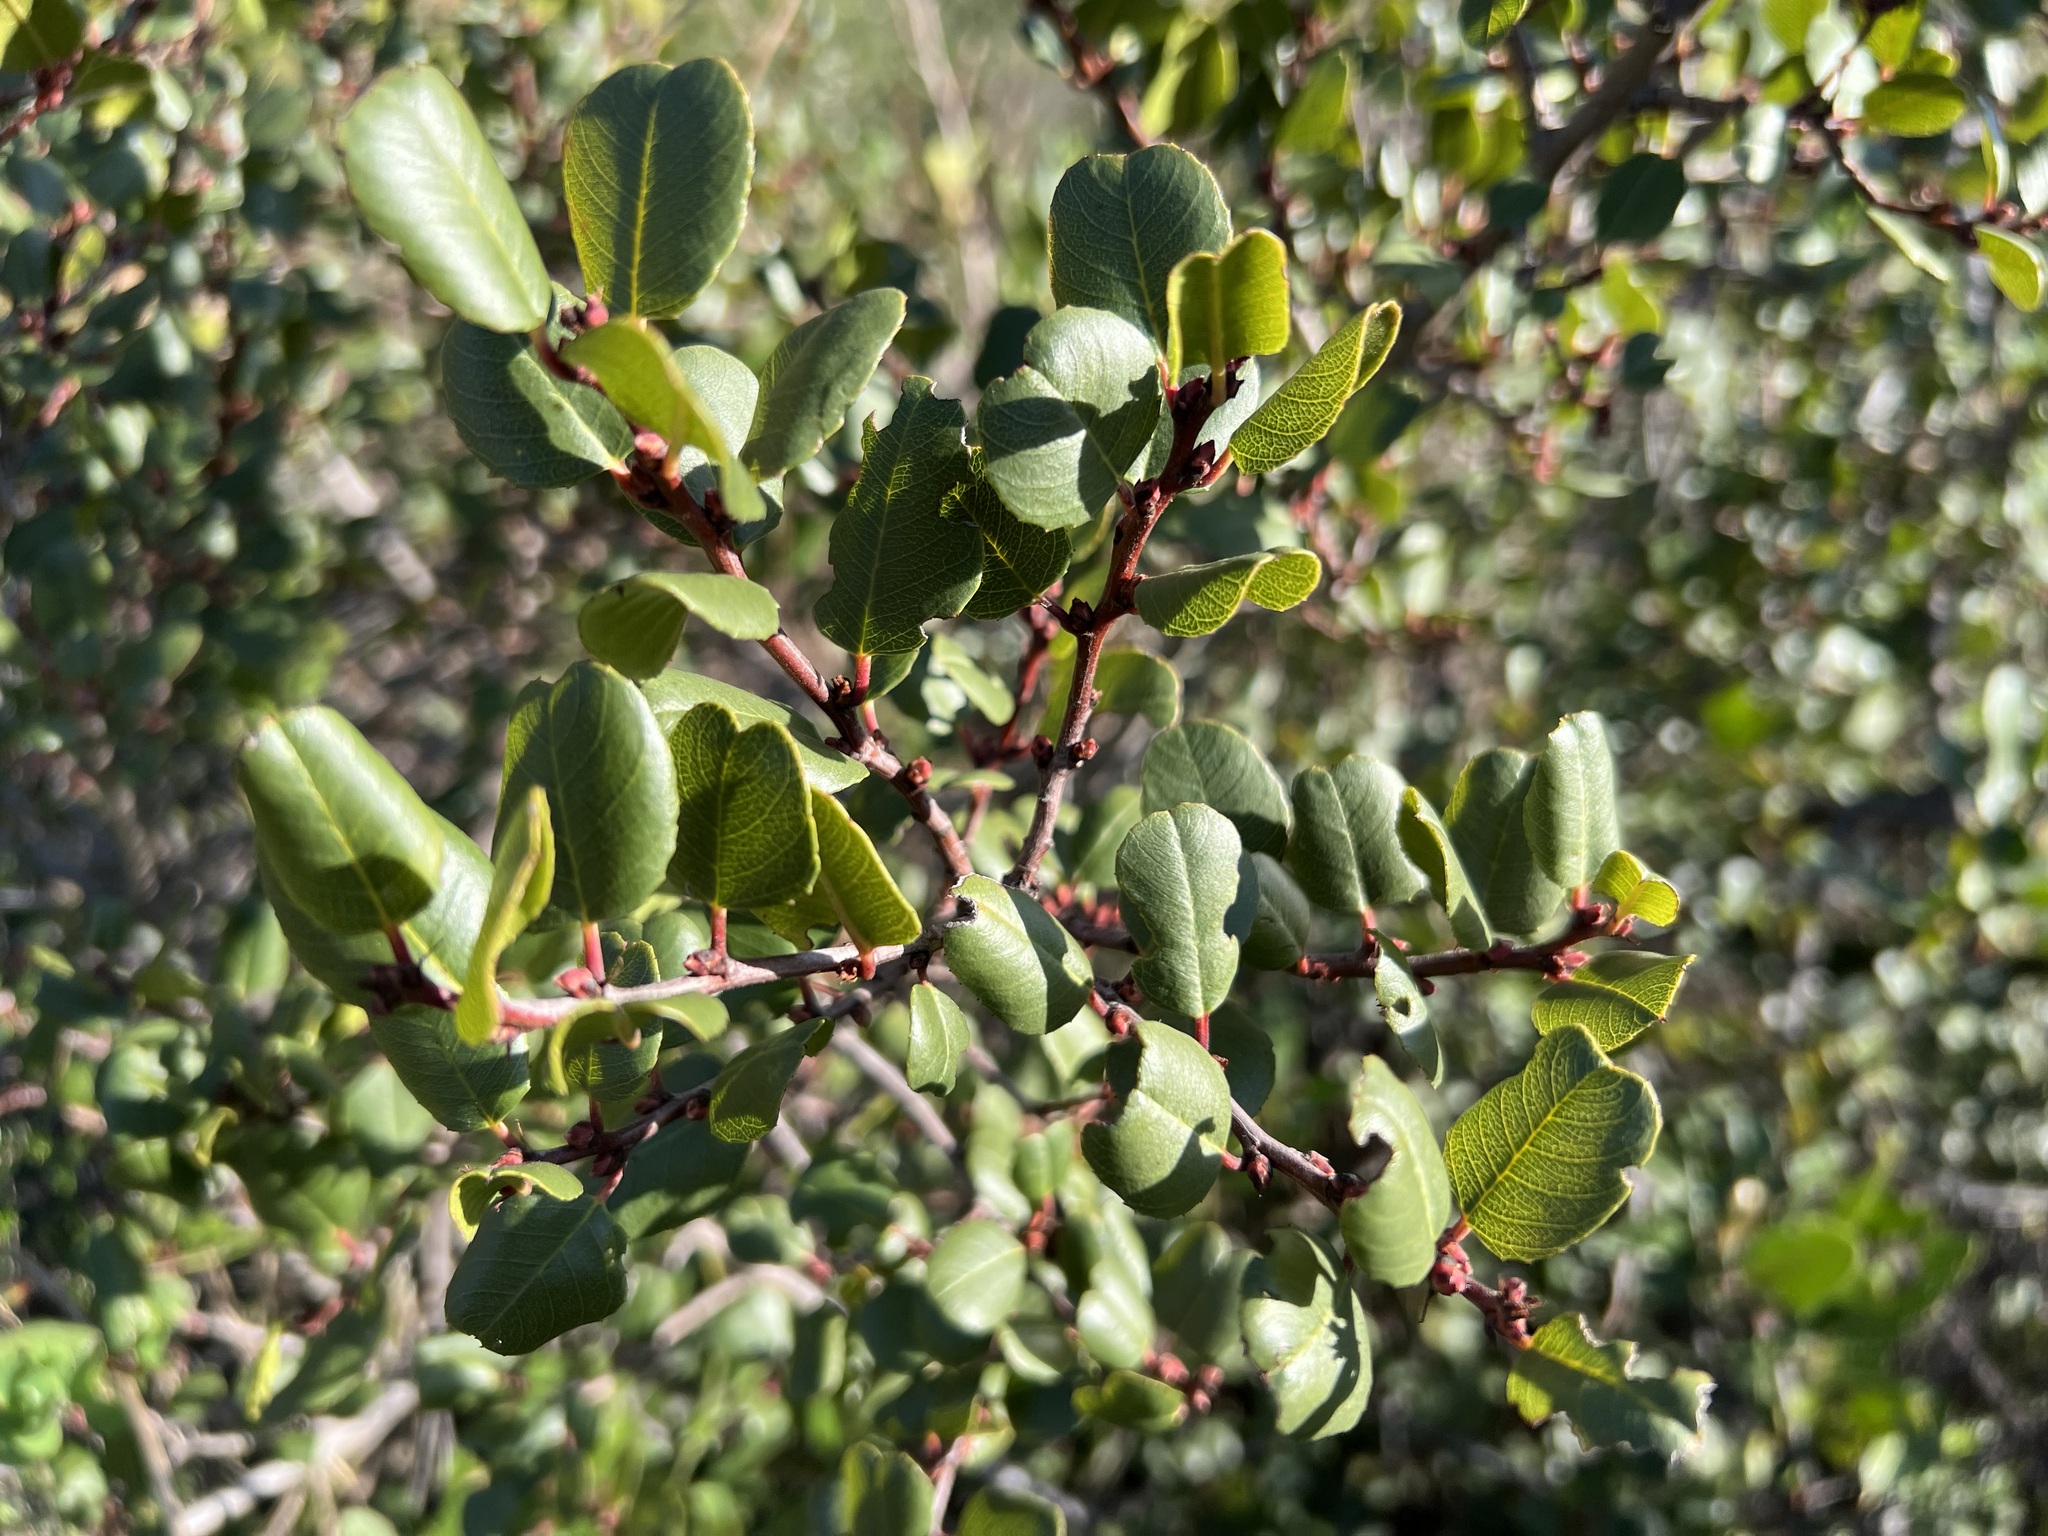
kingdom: Plantae
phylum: Tracheophyta
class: Magnoliopsida
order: Rosales
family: Rhamnaceae
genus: Endotropis
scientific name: Endotropis crocea
